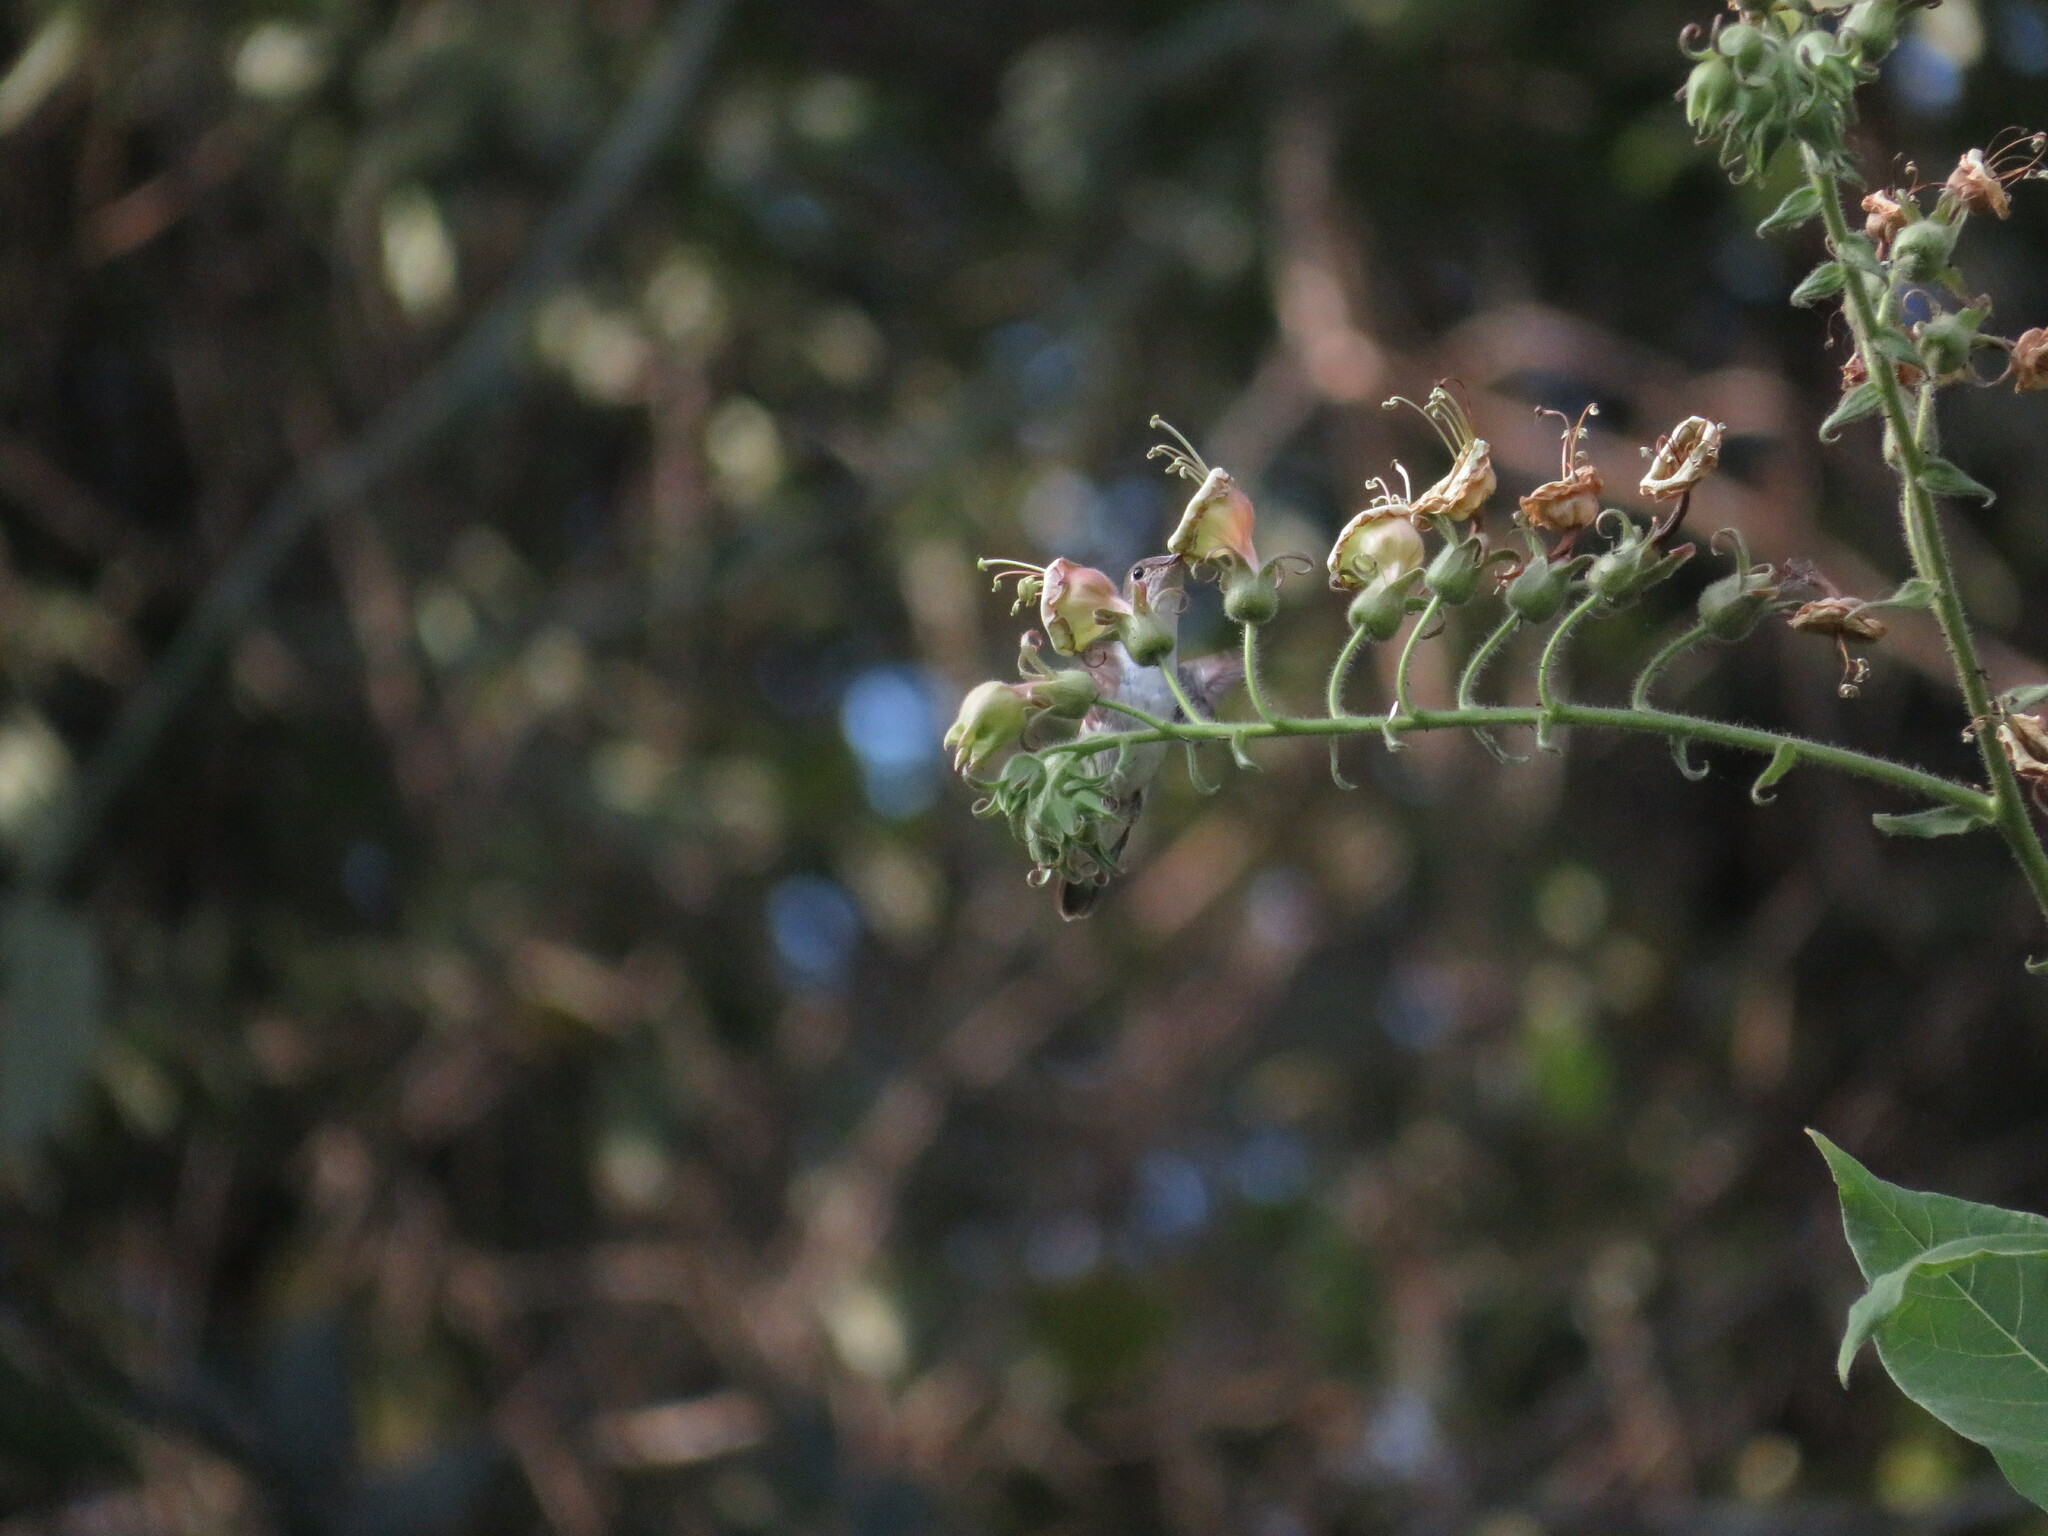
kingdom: Animalia
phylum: Chordata
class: Aves
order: Apodiformes
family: Trochilidae
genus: Elliotomyia
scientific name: Elliotomyia chionogaster
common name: White-bellied hummingbird
